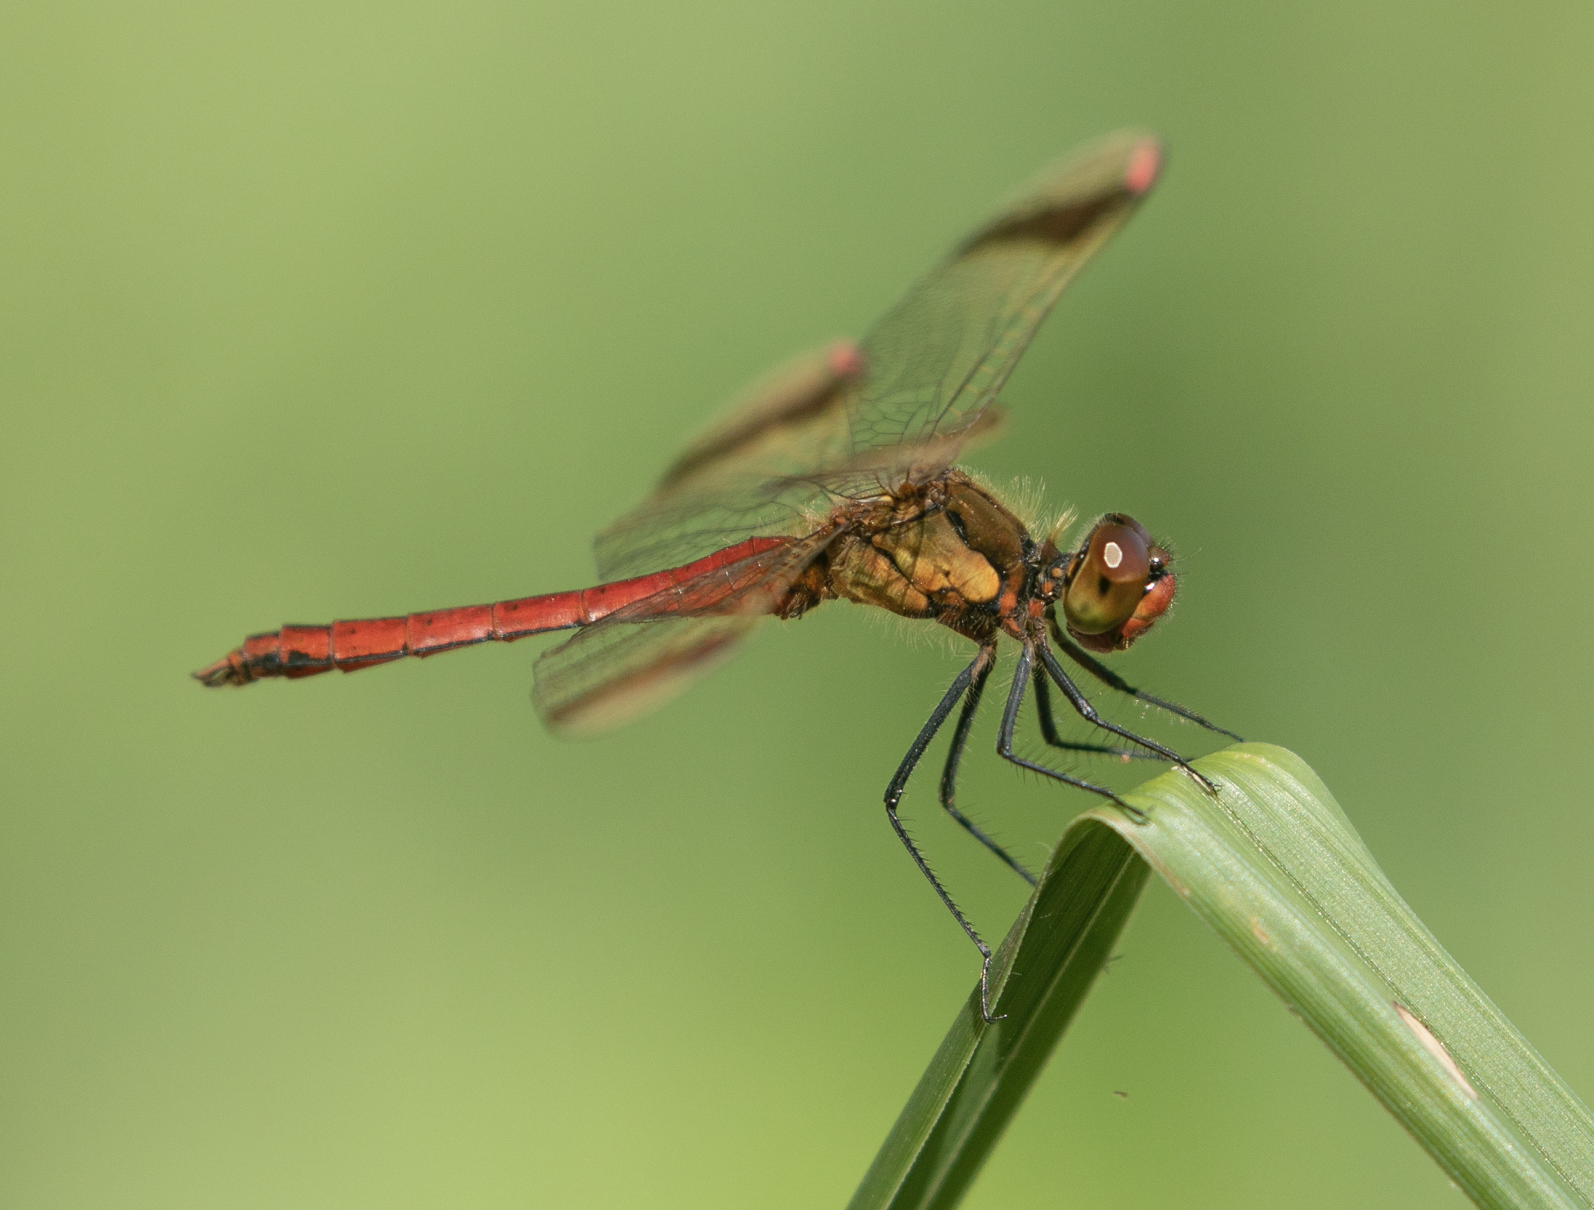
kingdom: Animalia
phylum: Arthropoda
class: Insecta
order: Odonata
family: Libellulidae
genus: Sympetrum
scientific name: Sympetrum pedemontanum
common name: Banded darter
